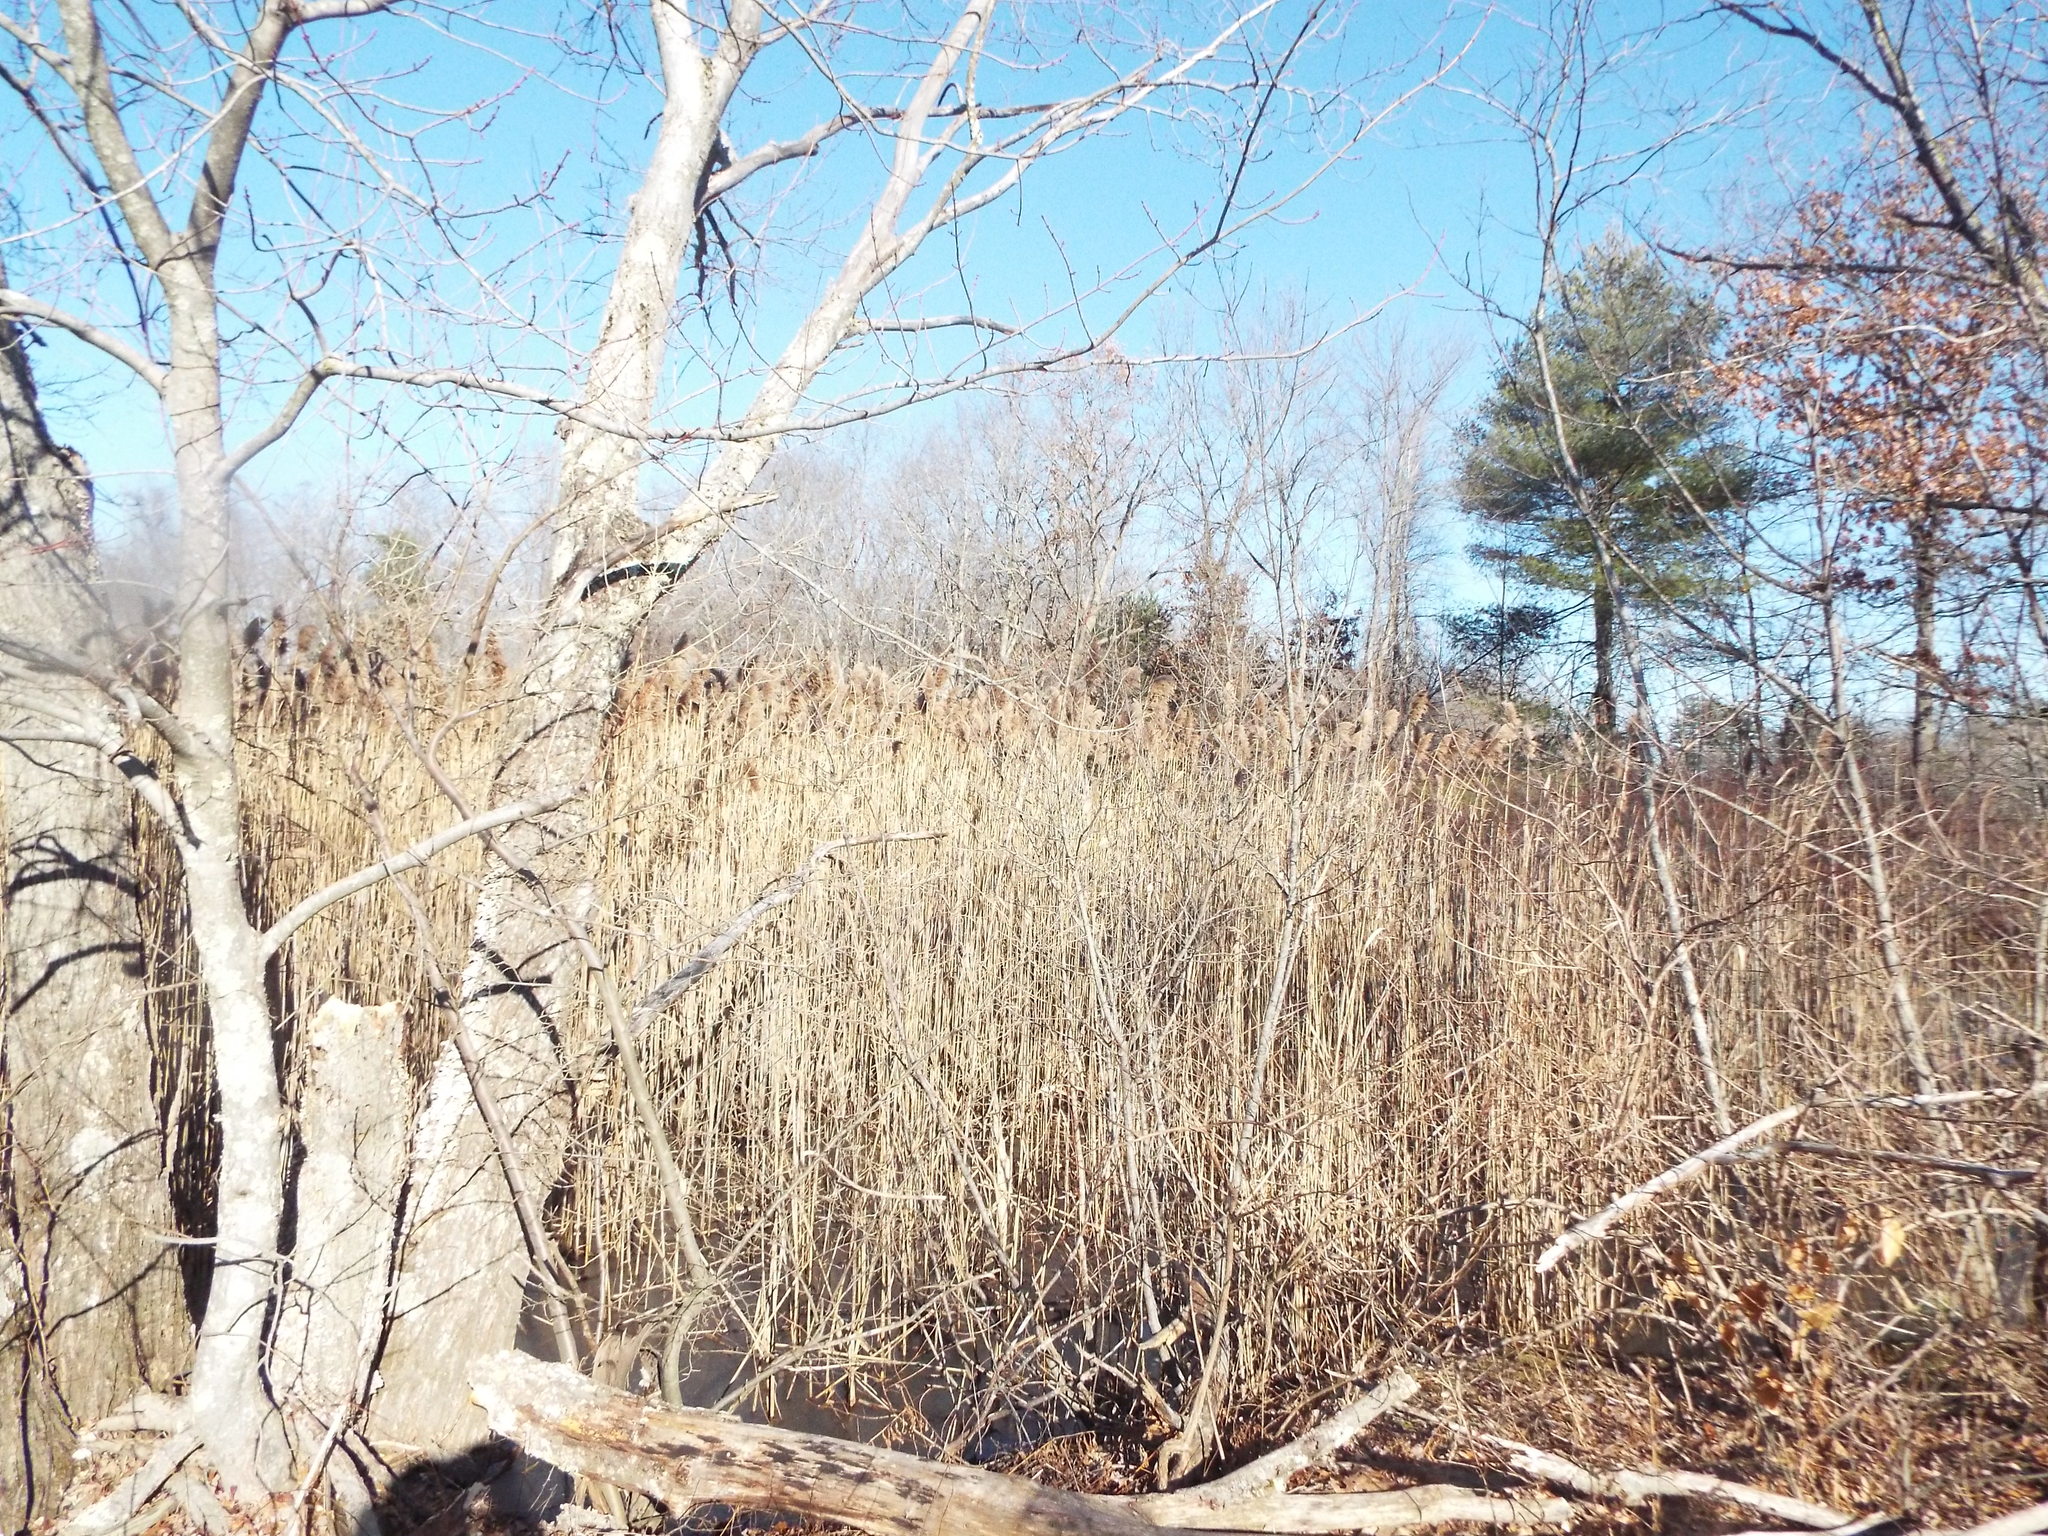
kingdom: Plantae
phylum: Tracheophyta
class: Liliopsida
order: Poales
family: Poaceae
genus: Phragmites
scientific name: Phragmites australis
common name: Common reed
